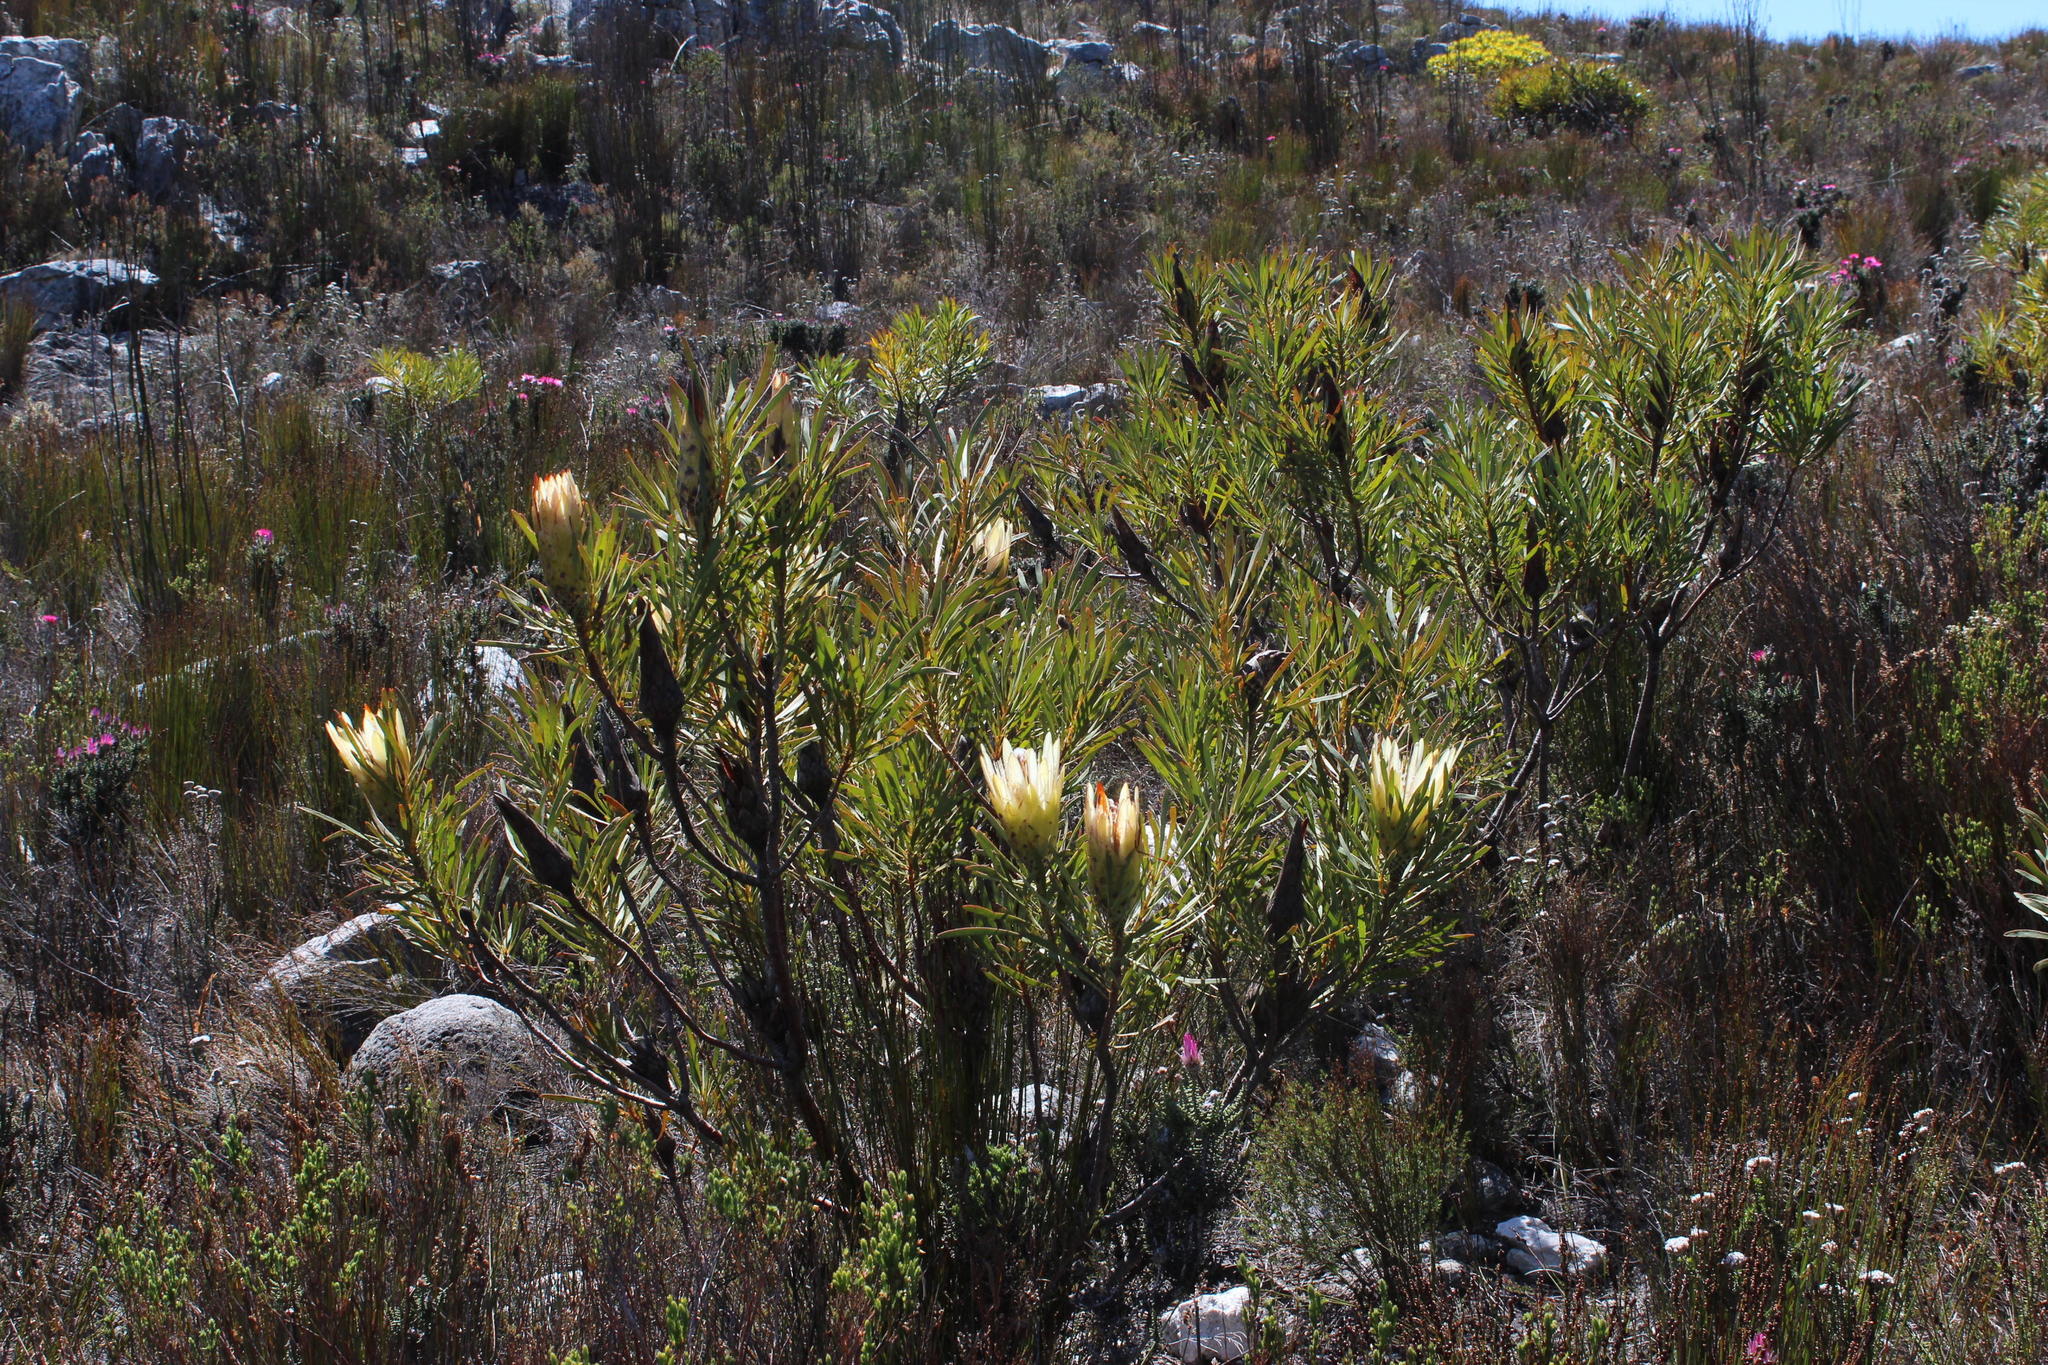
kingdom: Plantae
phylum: Tracheophyta
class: Magnoliopsida
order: Proteales
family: Proteaceae
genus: Protea
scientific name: Protea repens
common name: Sugarbush
